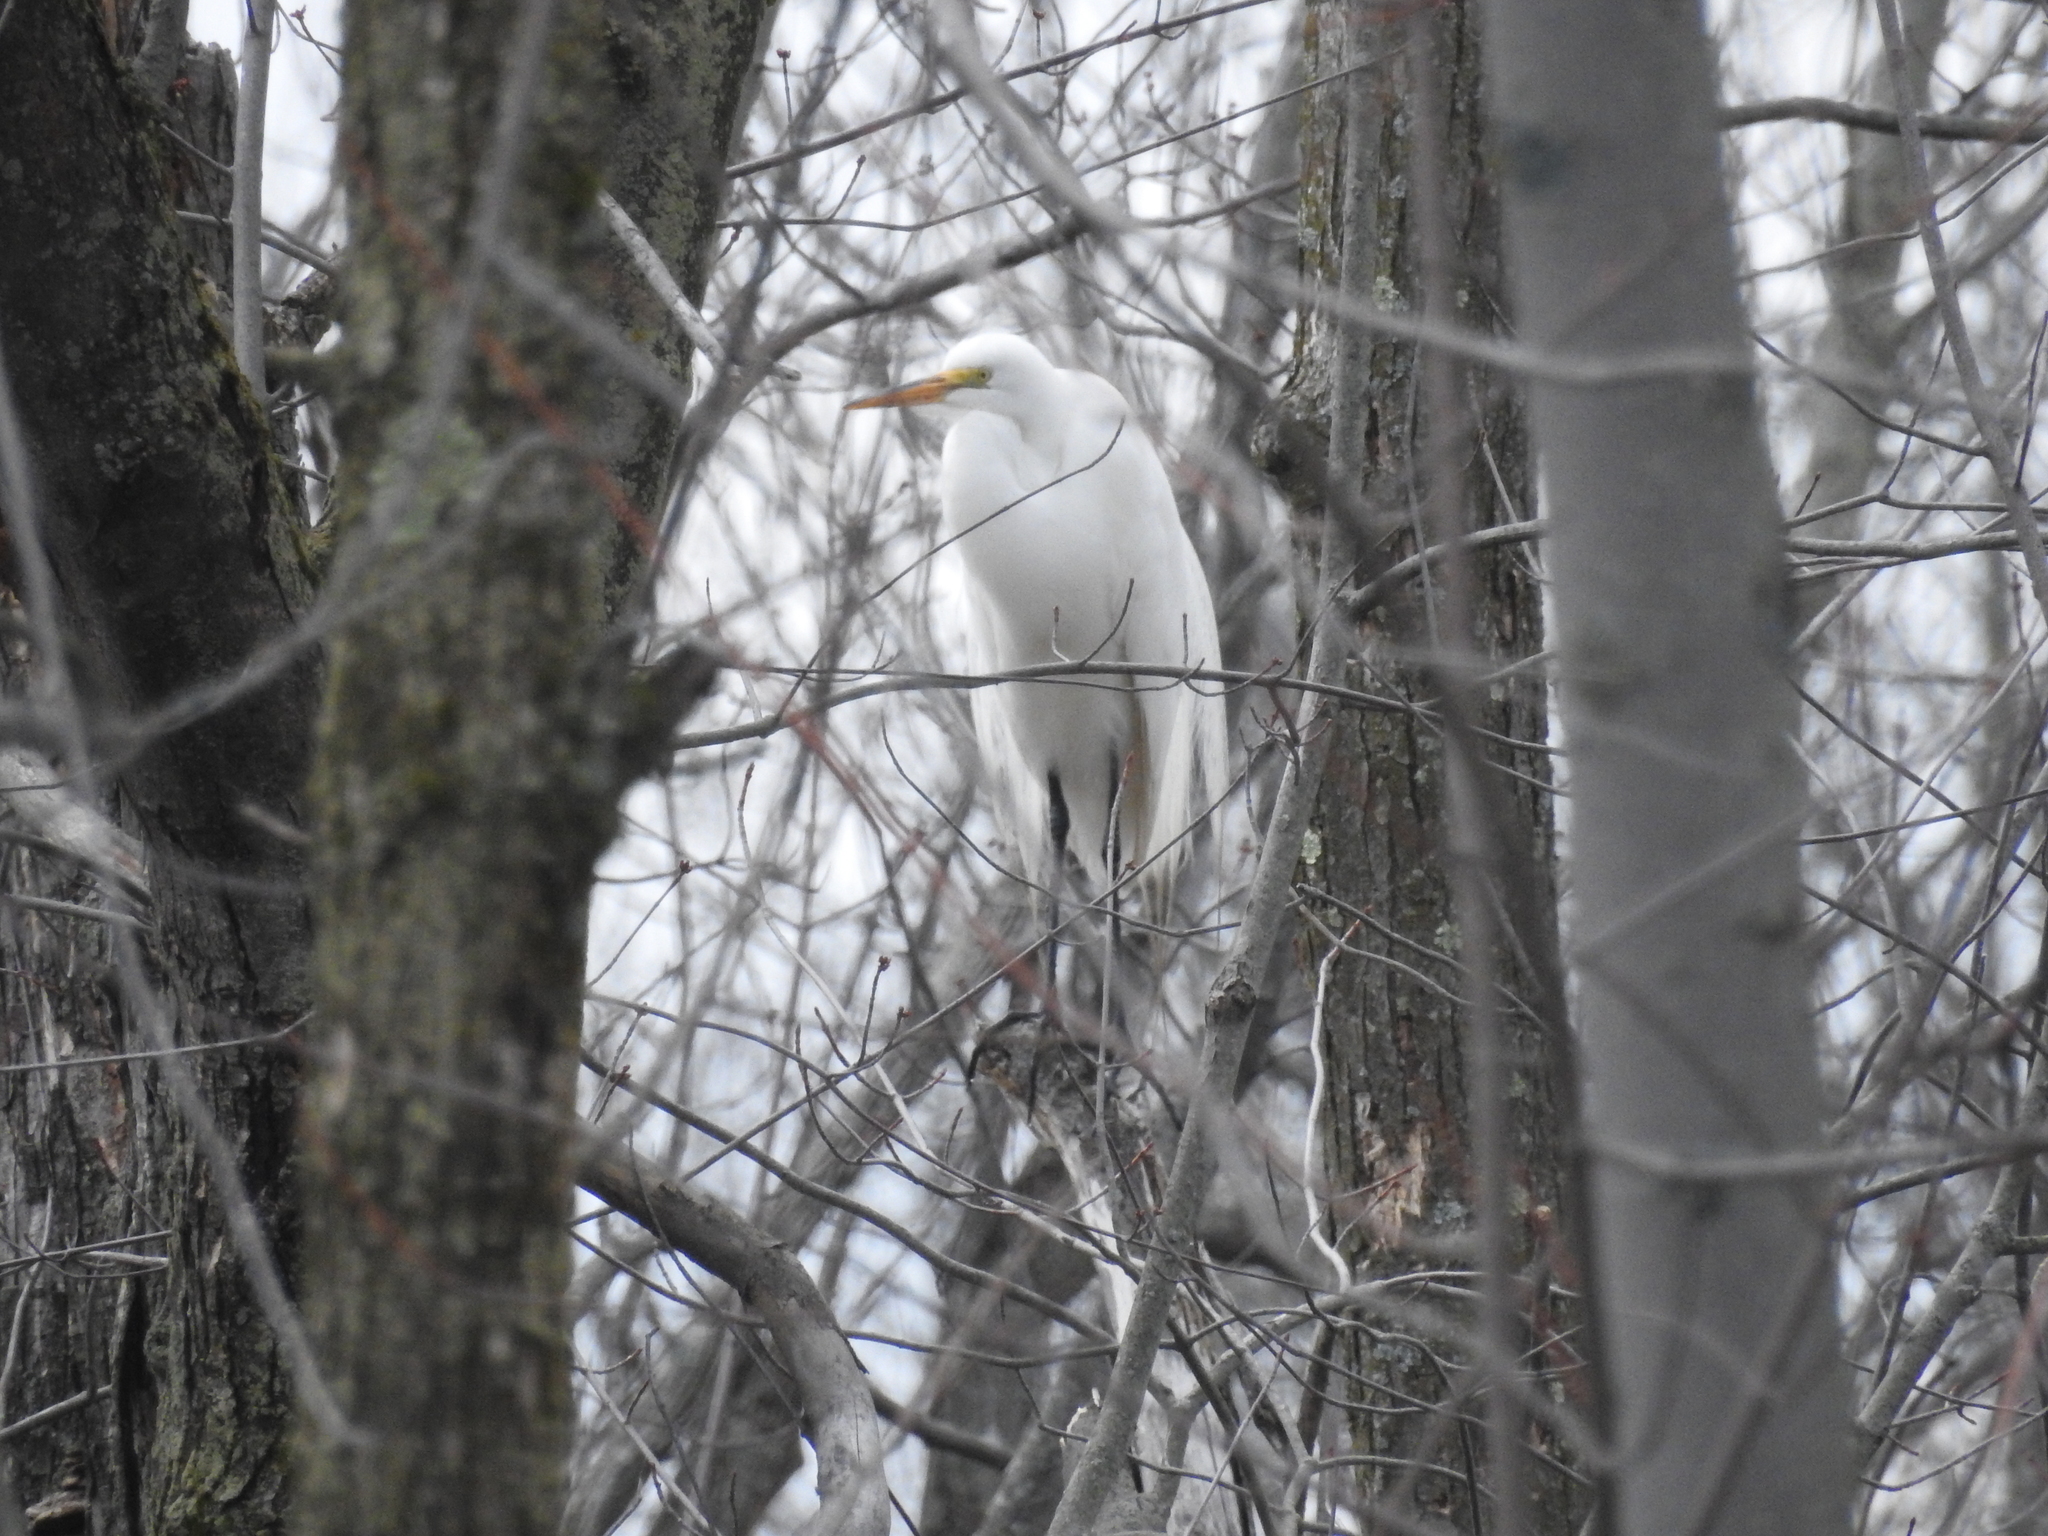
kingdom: Animalia
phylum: Chordata
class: Aves
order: Pelecaniformes
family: Ardeidae
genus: Ardea
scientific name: Ardea alba
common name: Great egret
